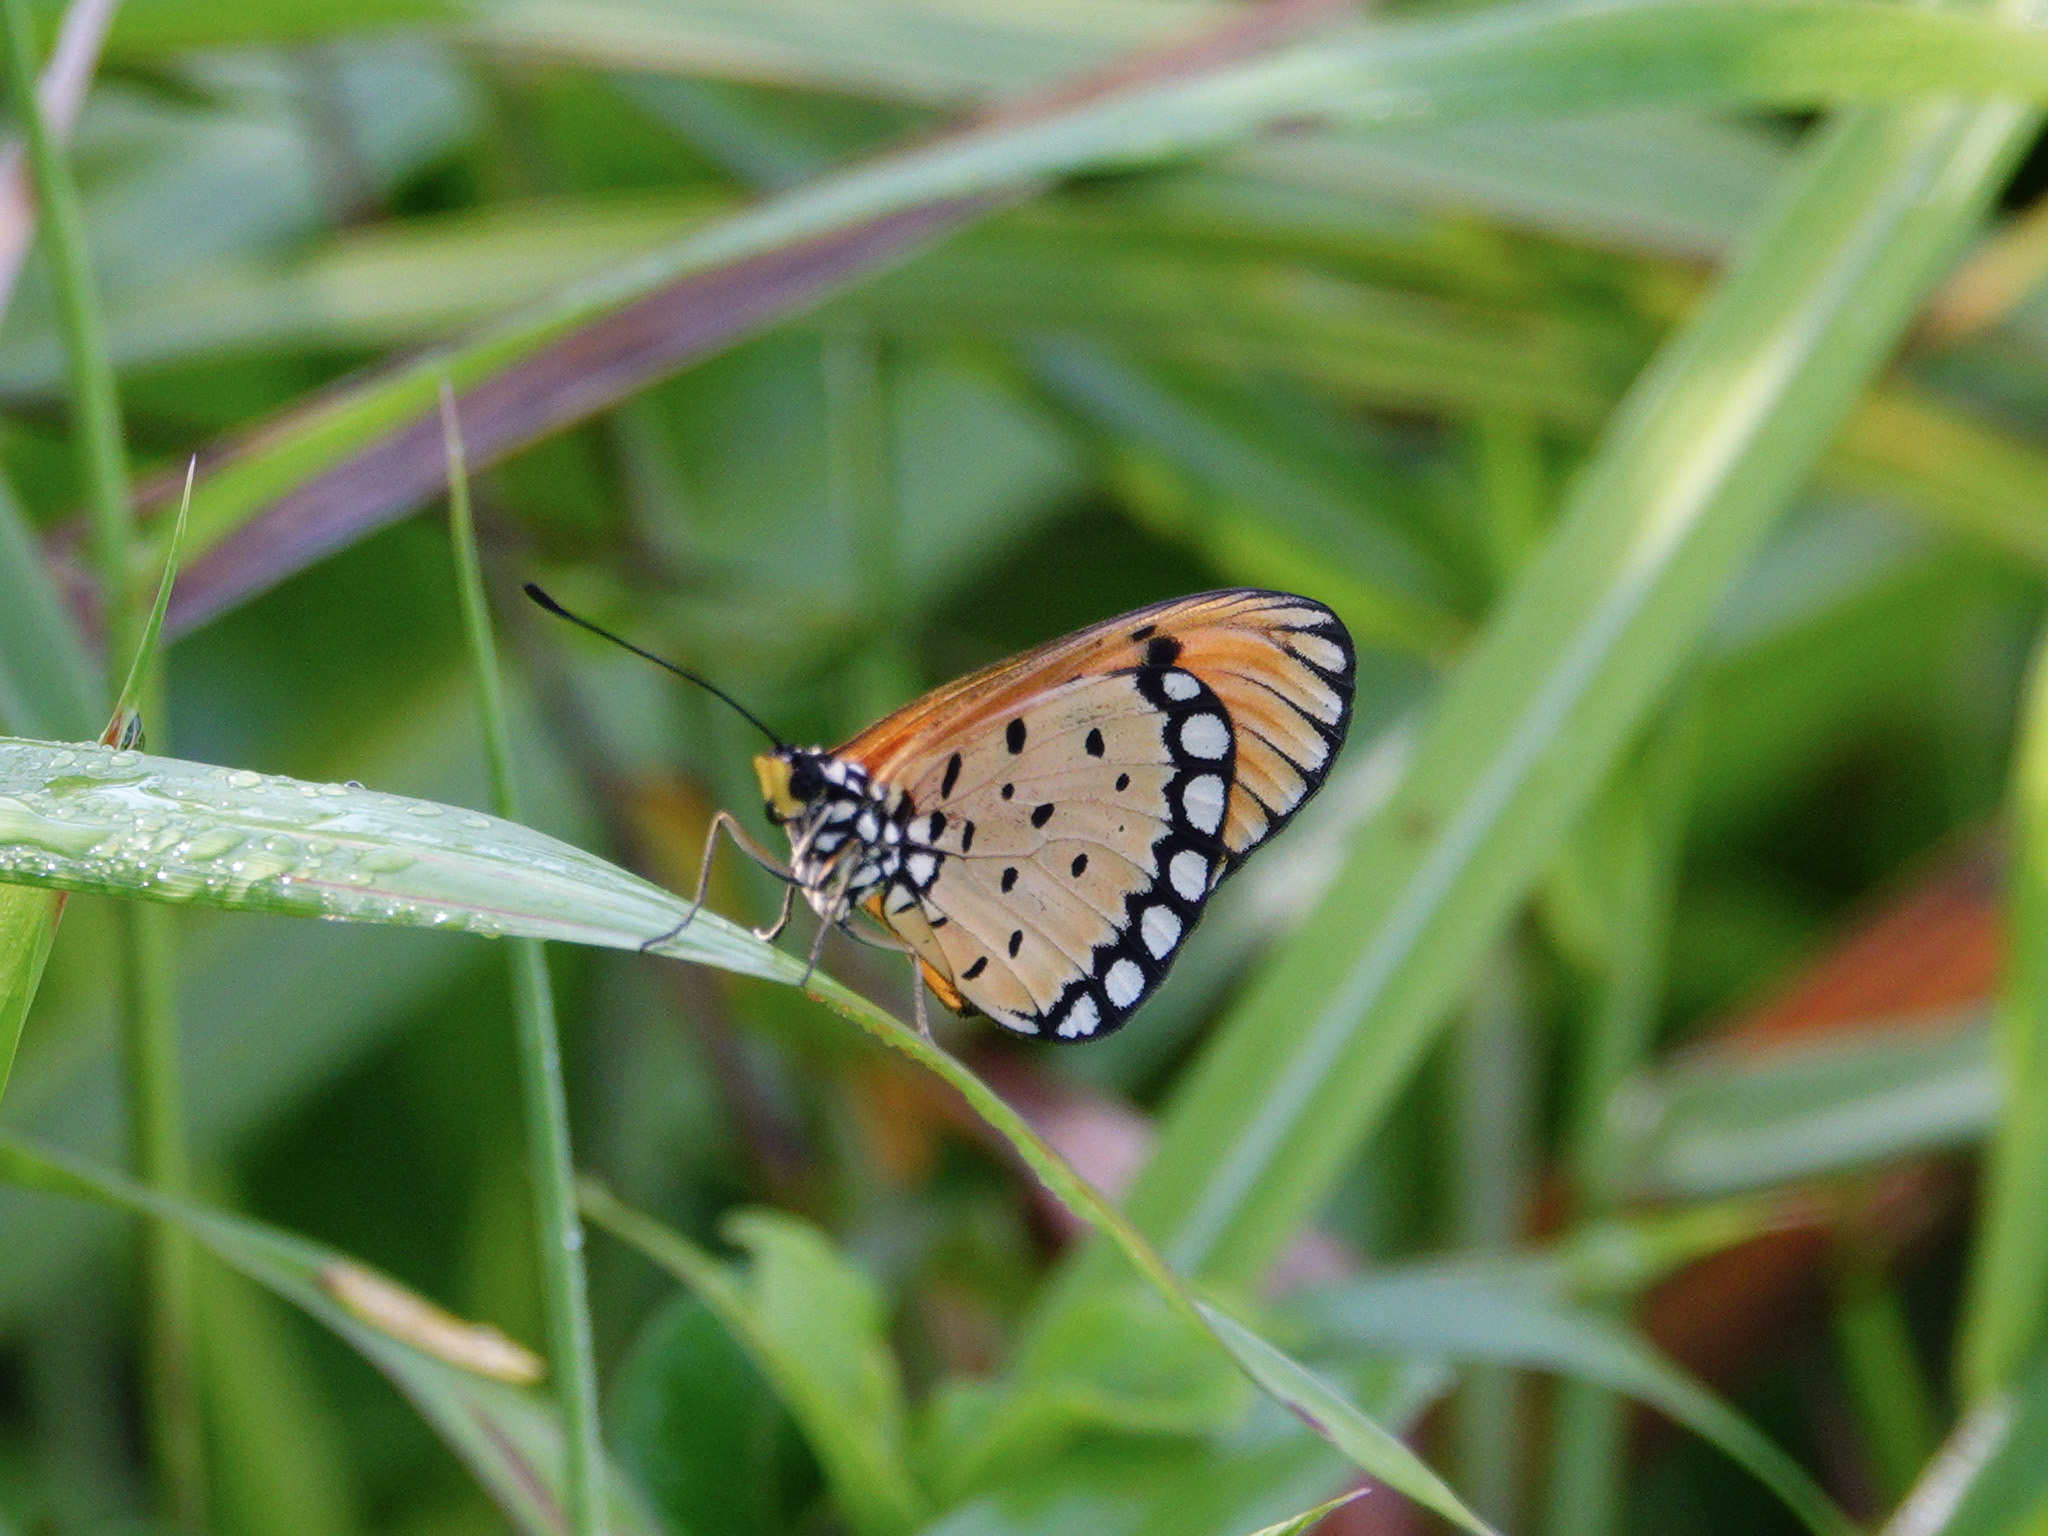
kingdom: Animalia
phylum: Arthropoda
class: Insecta
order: Lepidoptera
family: Nymphalidae
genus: Acraea
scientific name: Acraea terpsicore
